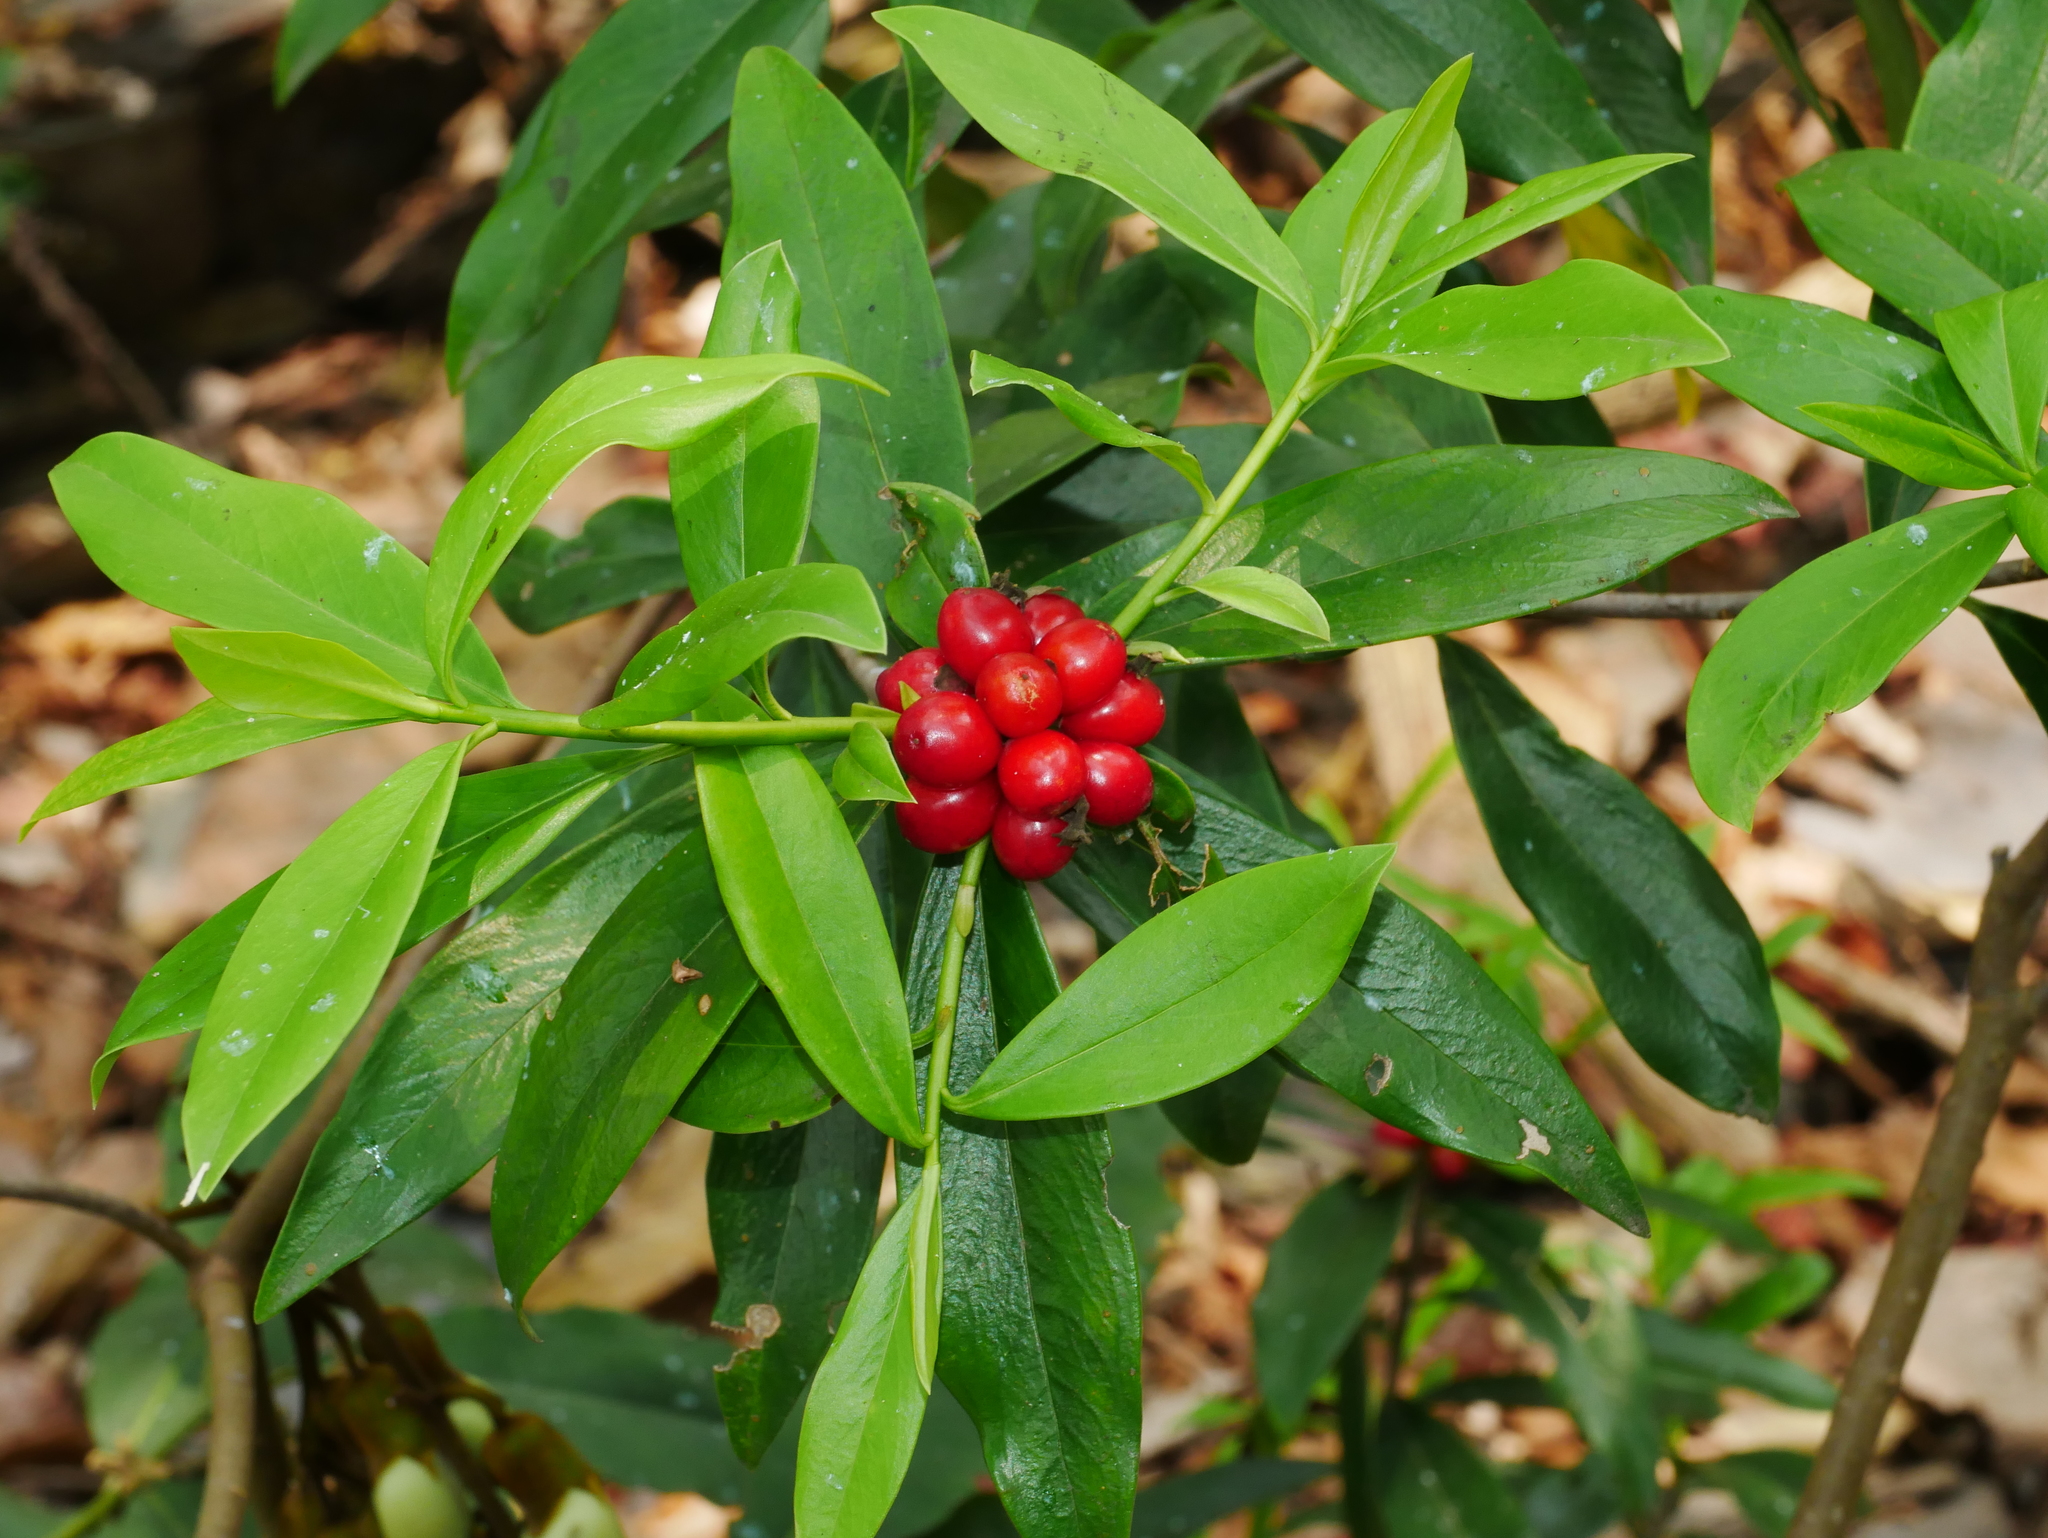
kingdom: Plantae
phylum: Tracheophyta
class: Magnoliopsida
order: Malvales
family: Thymelaeaceae
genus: Daphne
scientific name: Daphne kiusiana
